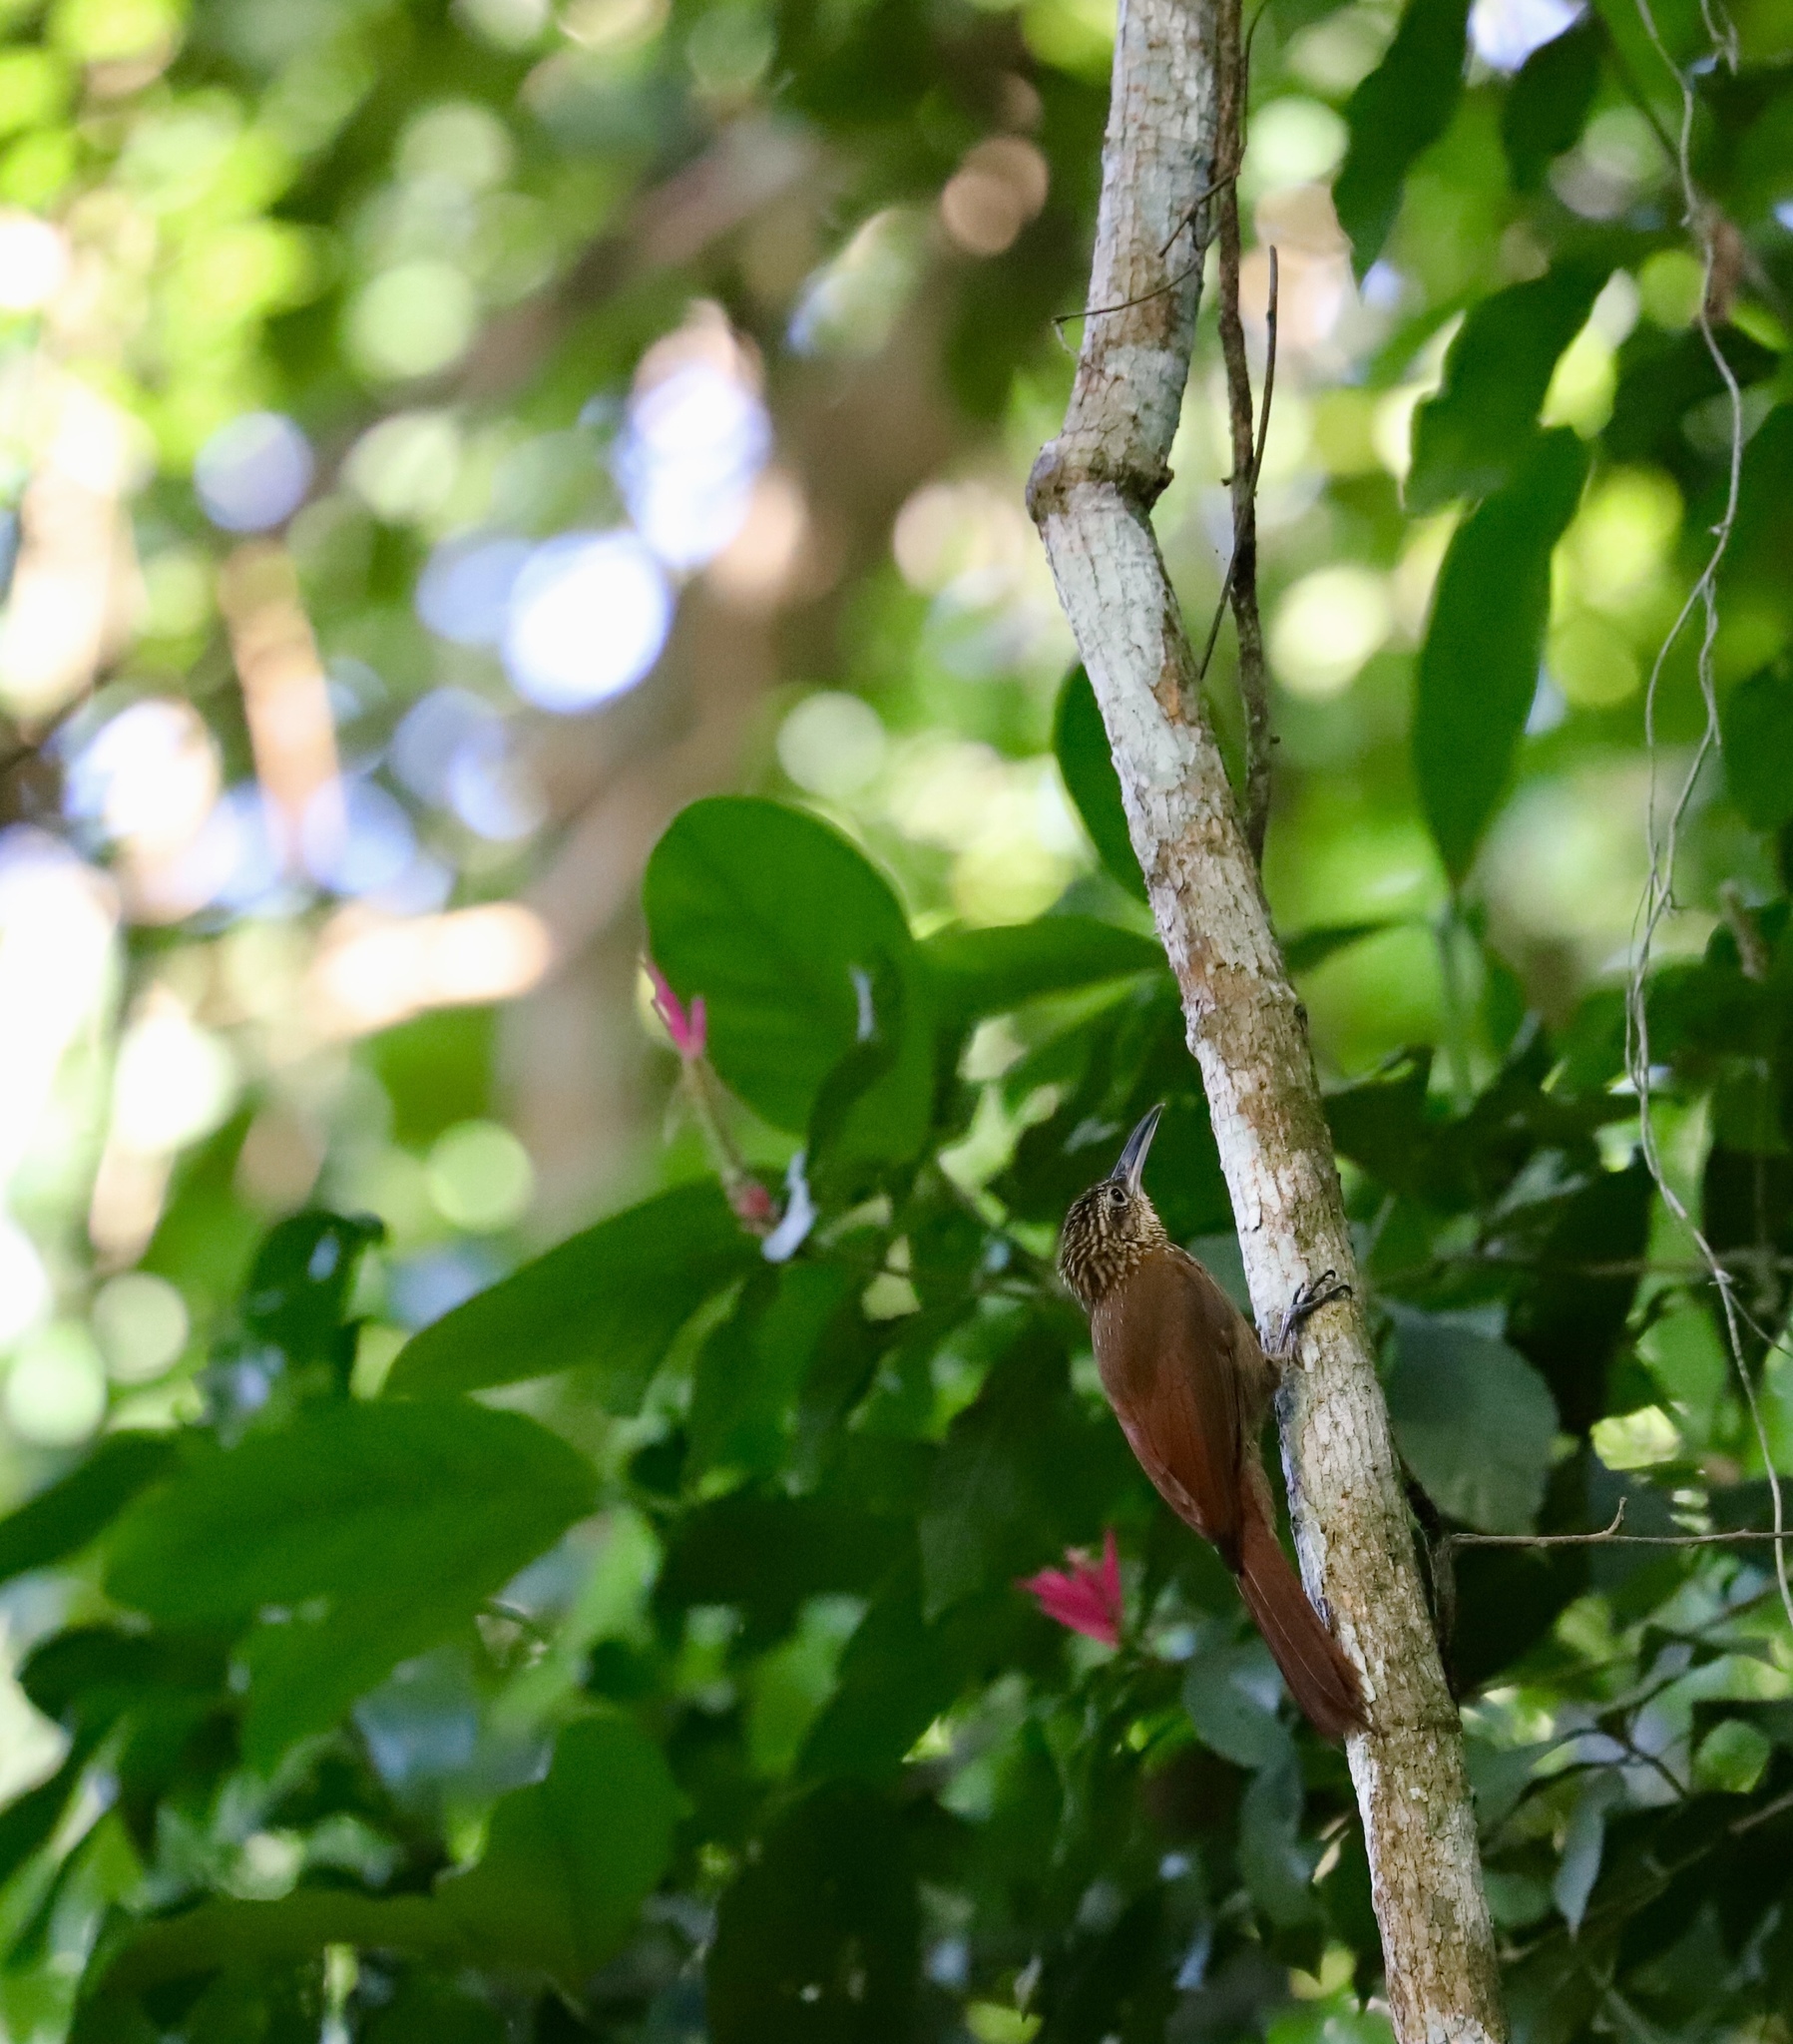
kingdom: Animalia
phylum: Chordata
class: Aves
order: Passeriformes
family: Furnariidae
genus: Xiphorhynchus
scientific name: Xiphorhynchus susurrans
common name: Cocoa woodcreeper
